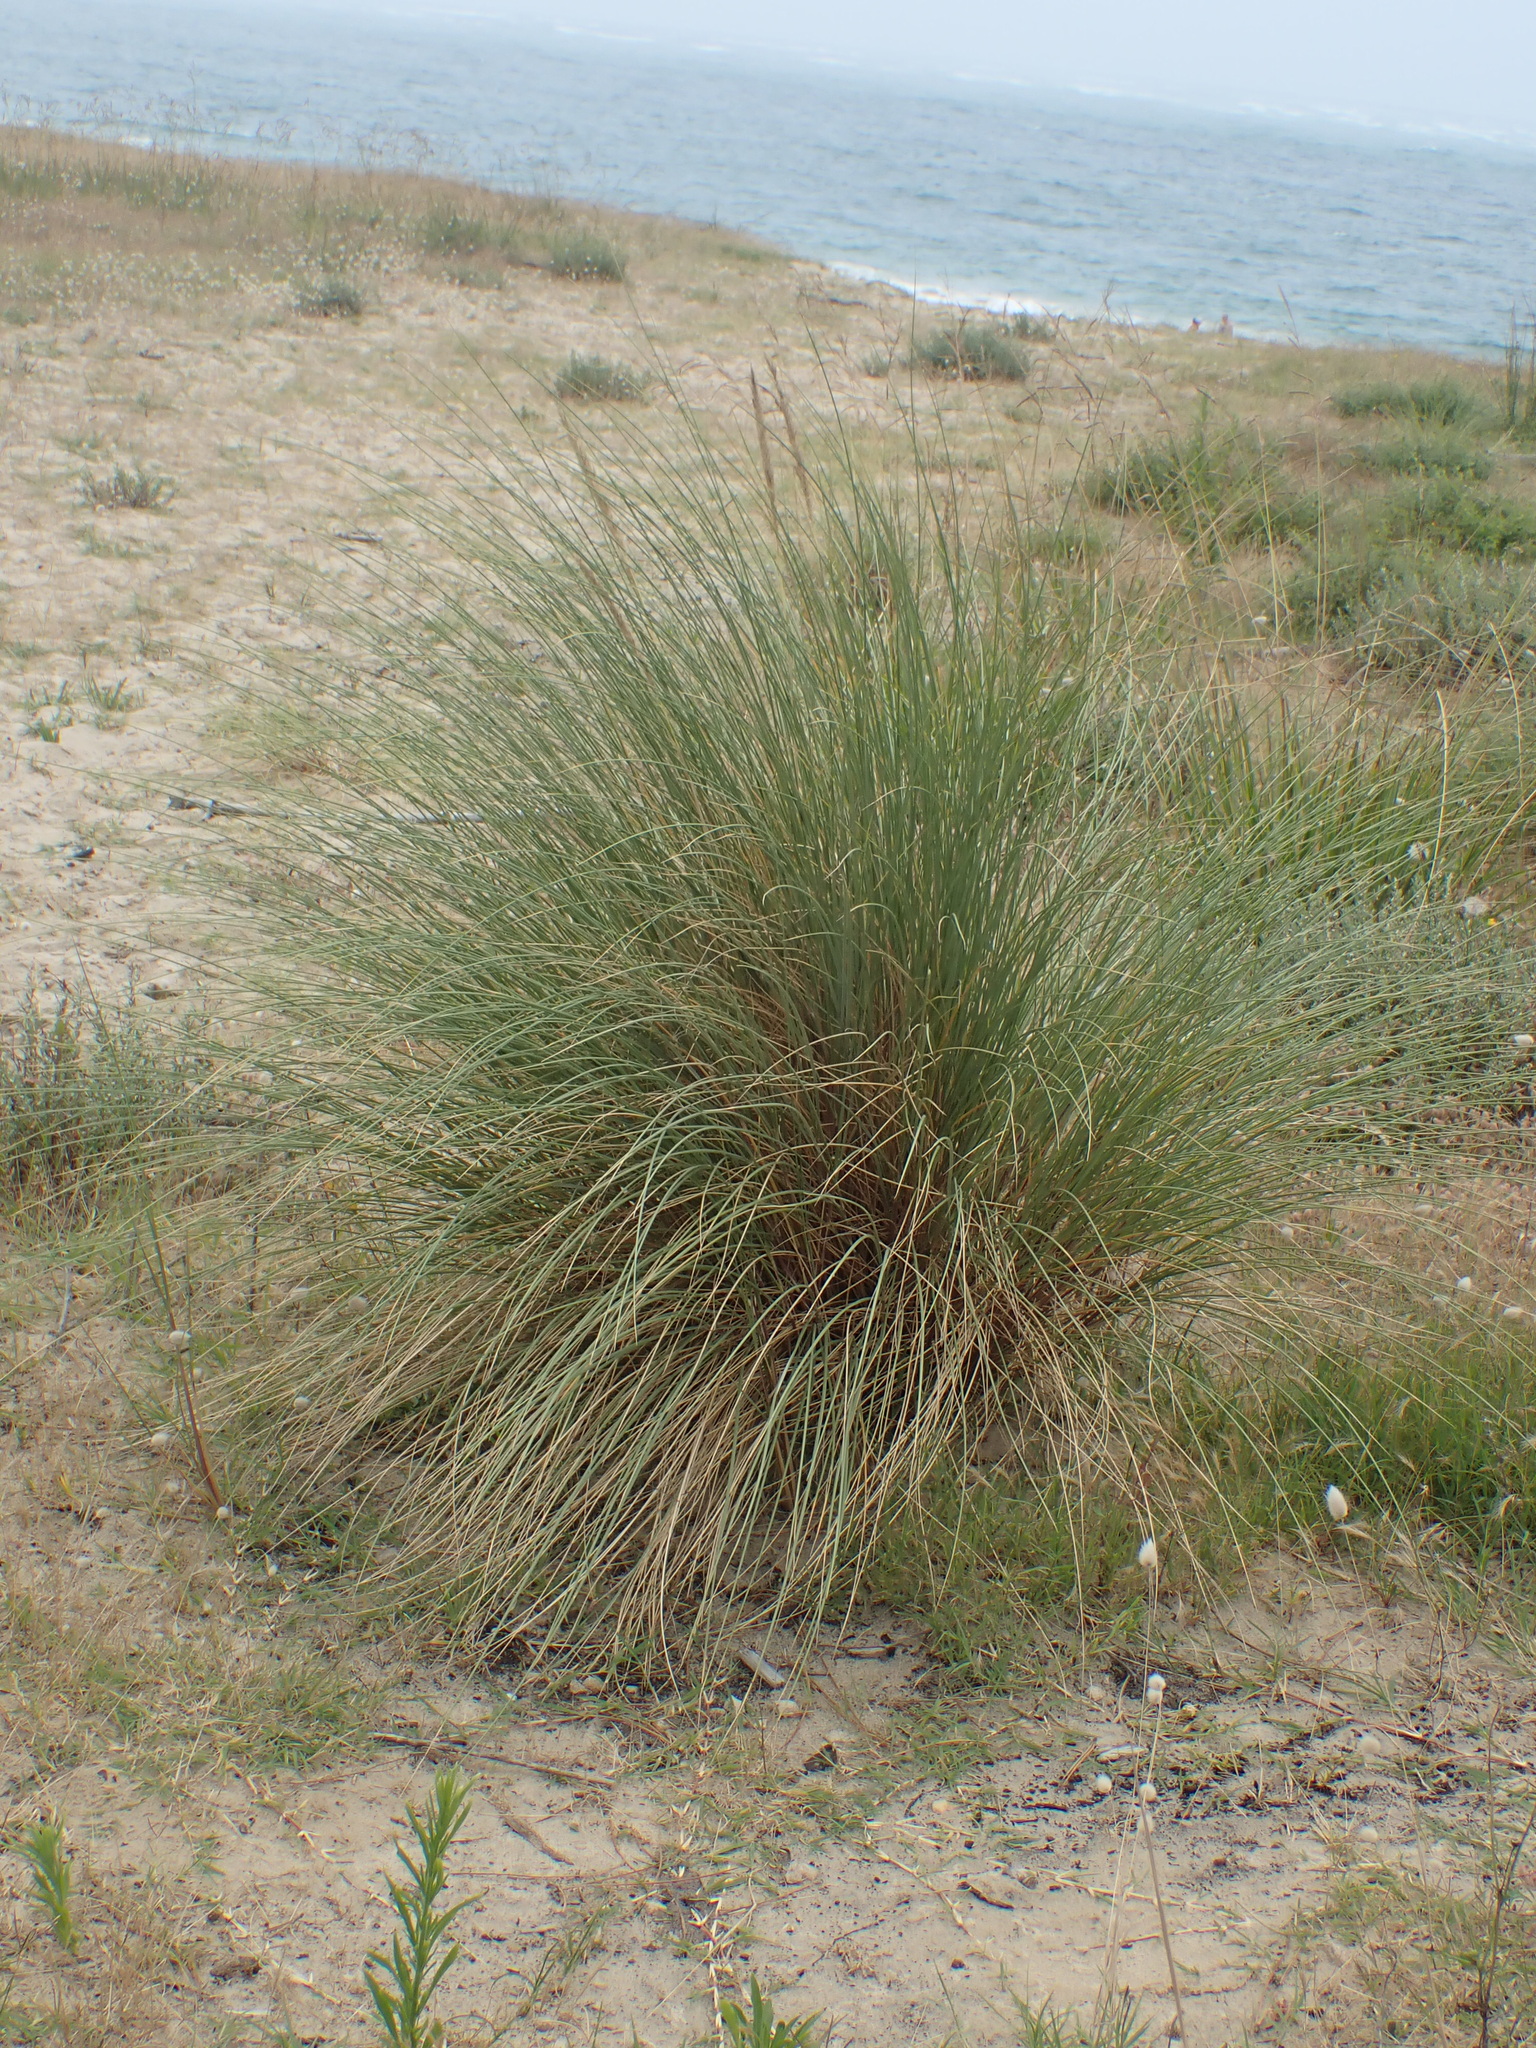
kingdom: Plantae
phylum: Tracheophyta
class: Liliopsida
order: Poales
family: Poaceae
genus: Cortaderia
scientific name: Cortaderia selloana
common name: Uruguayan pampas grass
